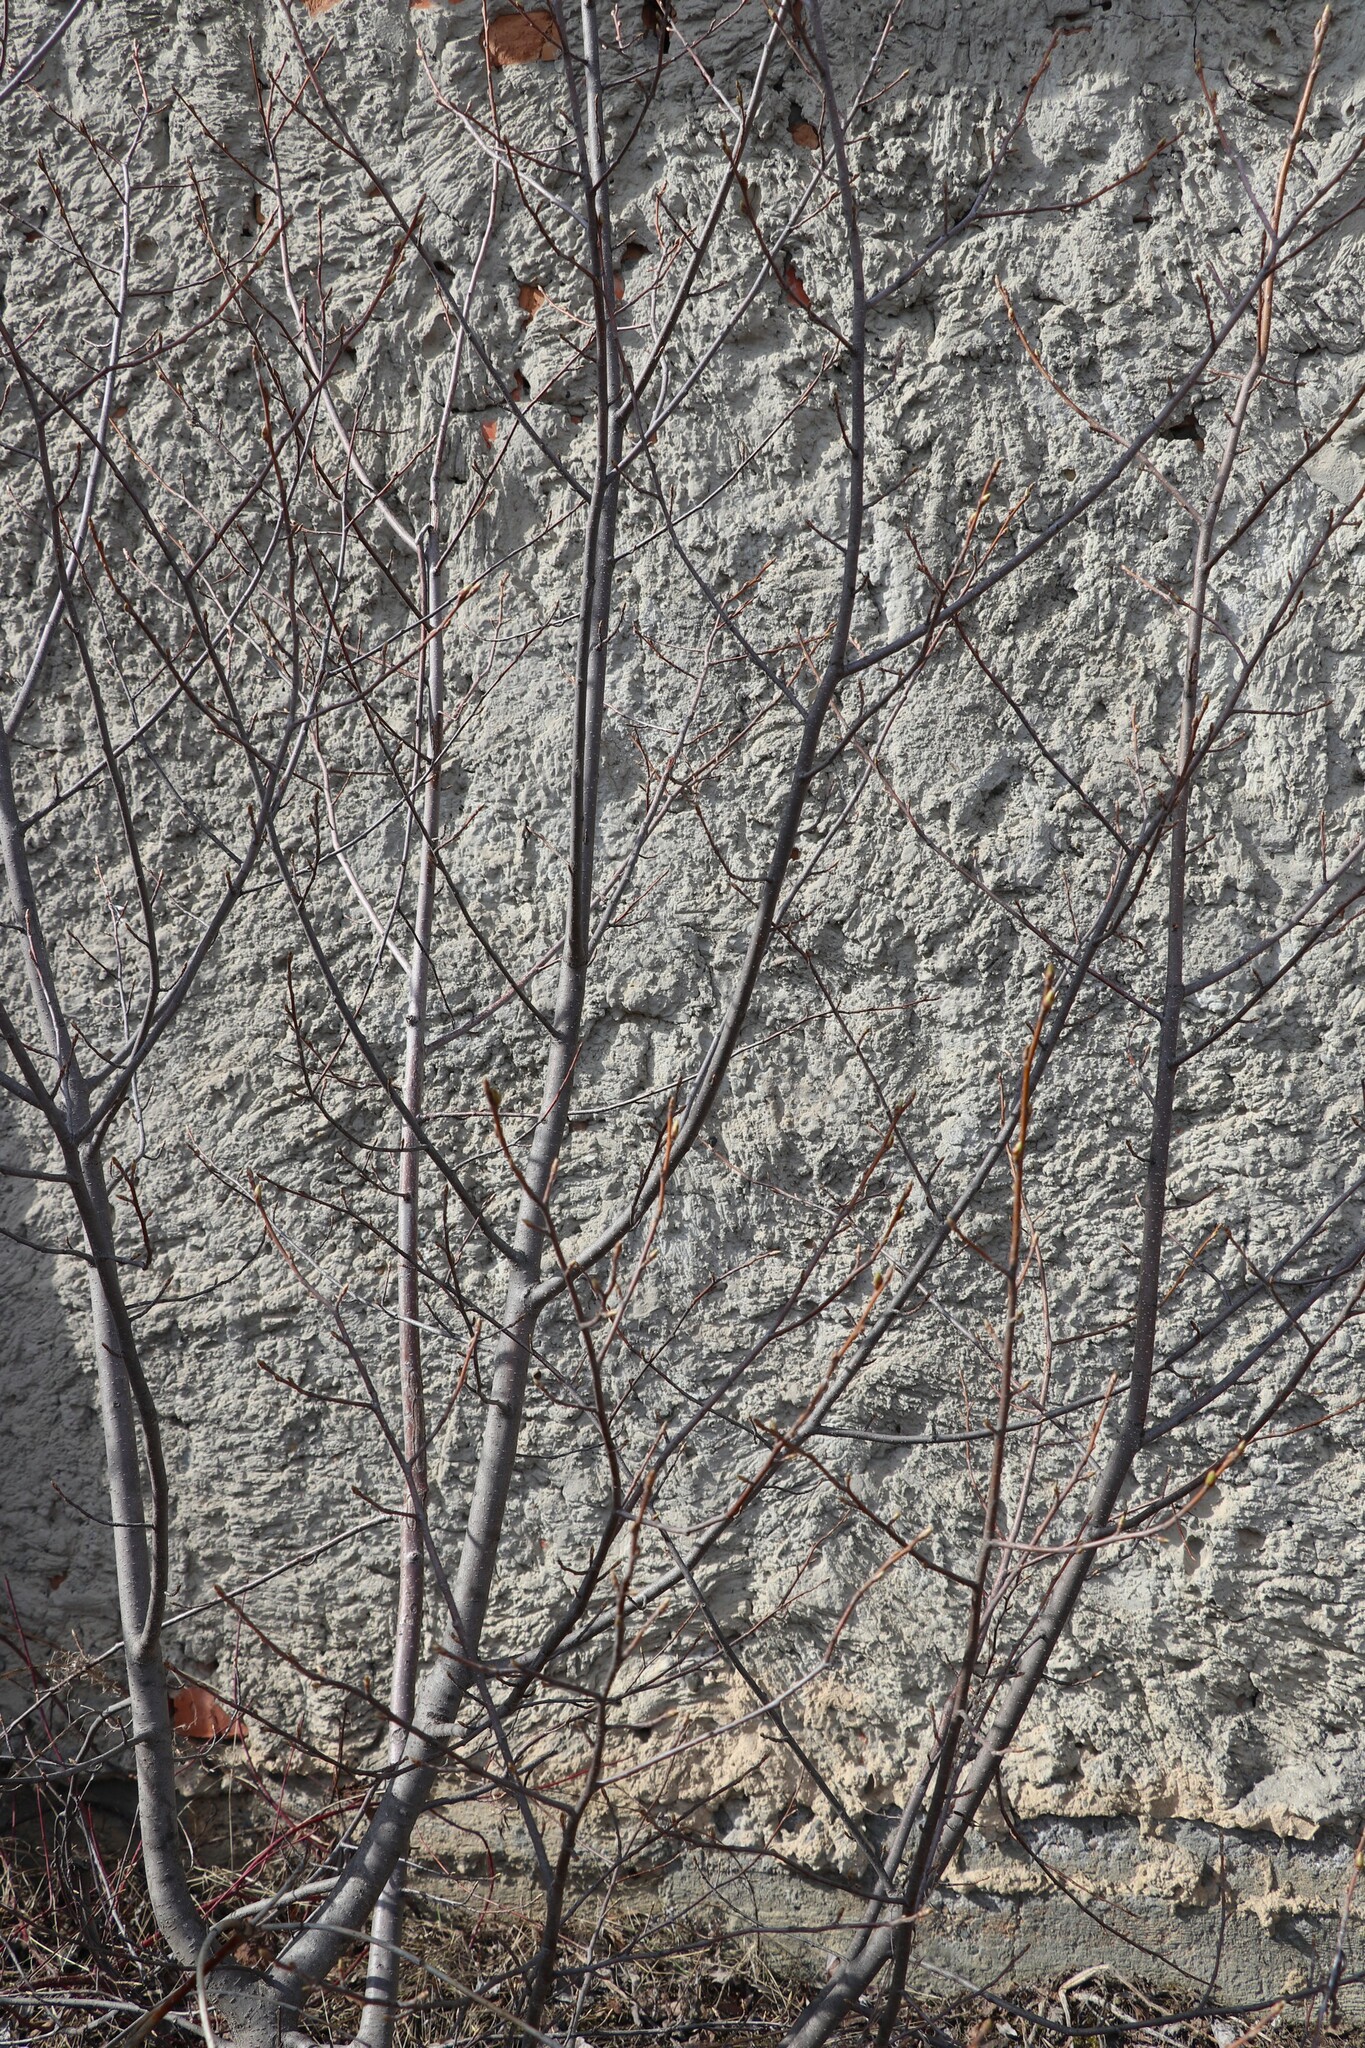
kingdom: Plantae
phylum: Tracheophyta
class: Magnoliopsida
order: Rosales
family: Rosaceae
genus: Prunus
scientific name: Prunus padus
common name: Bird cherry
